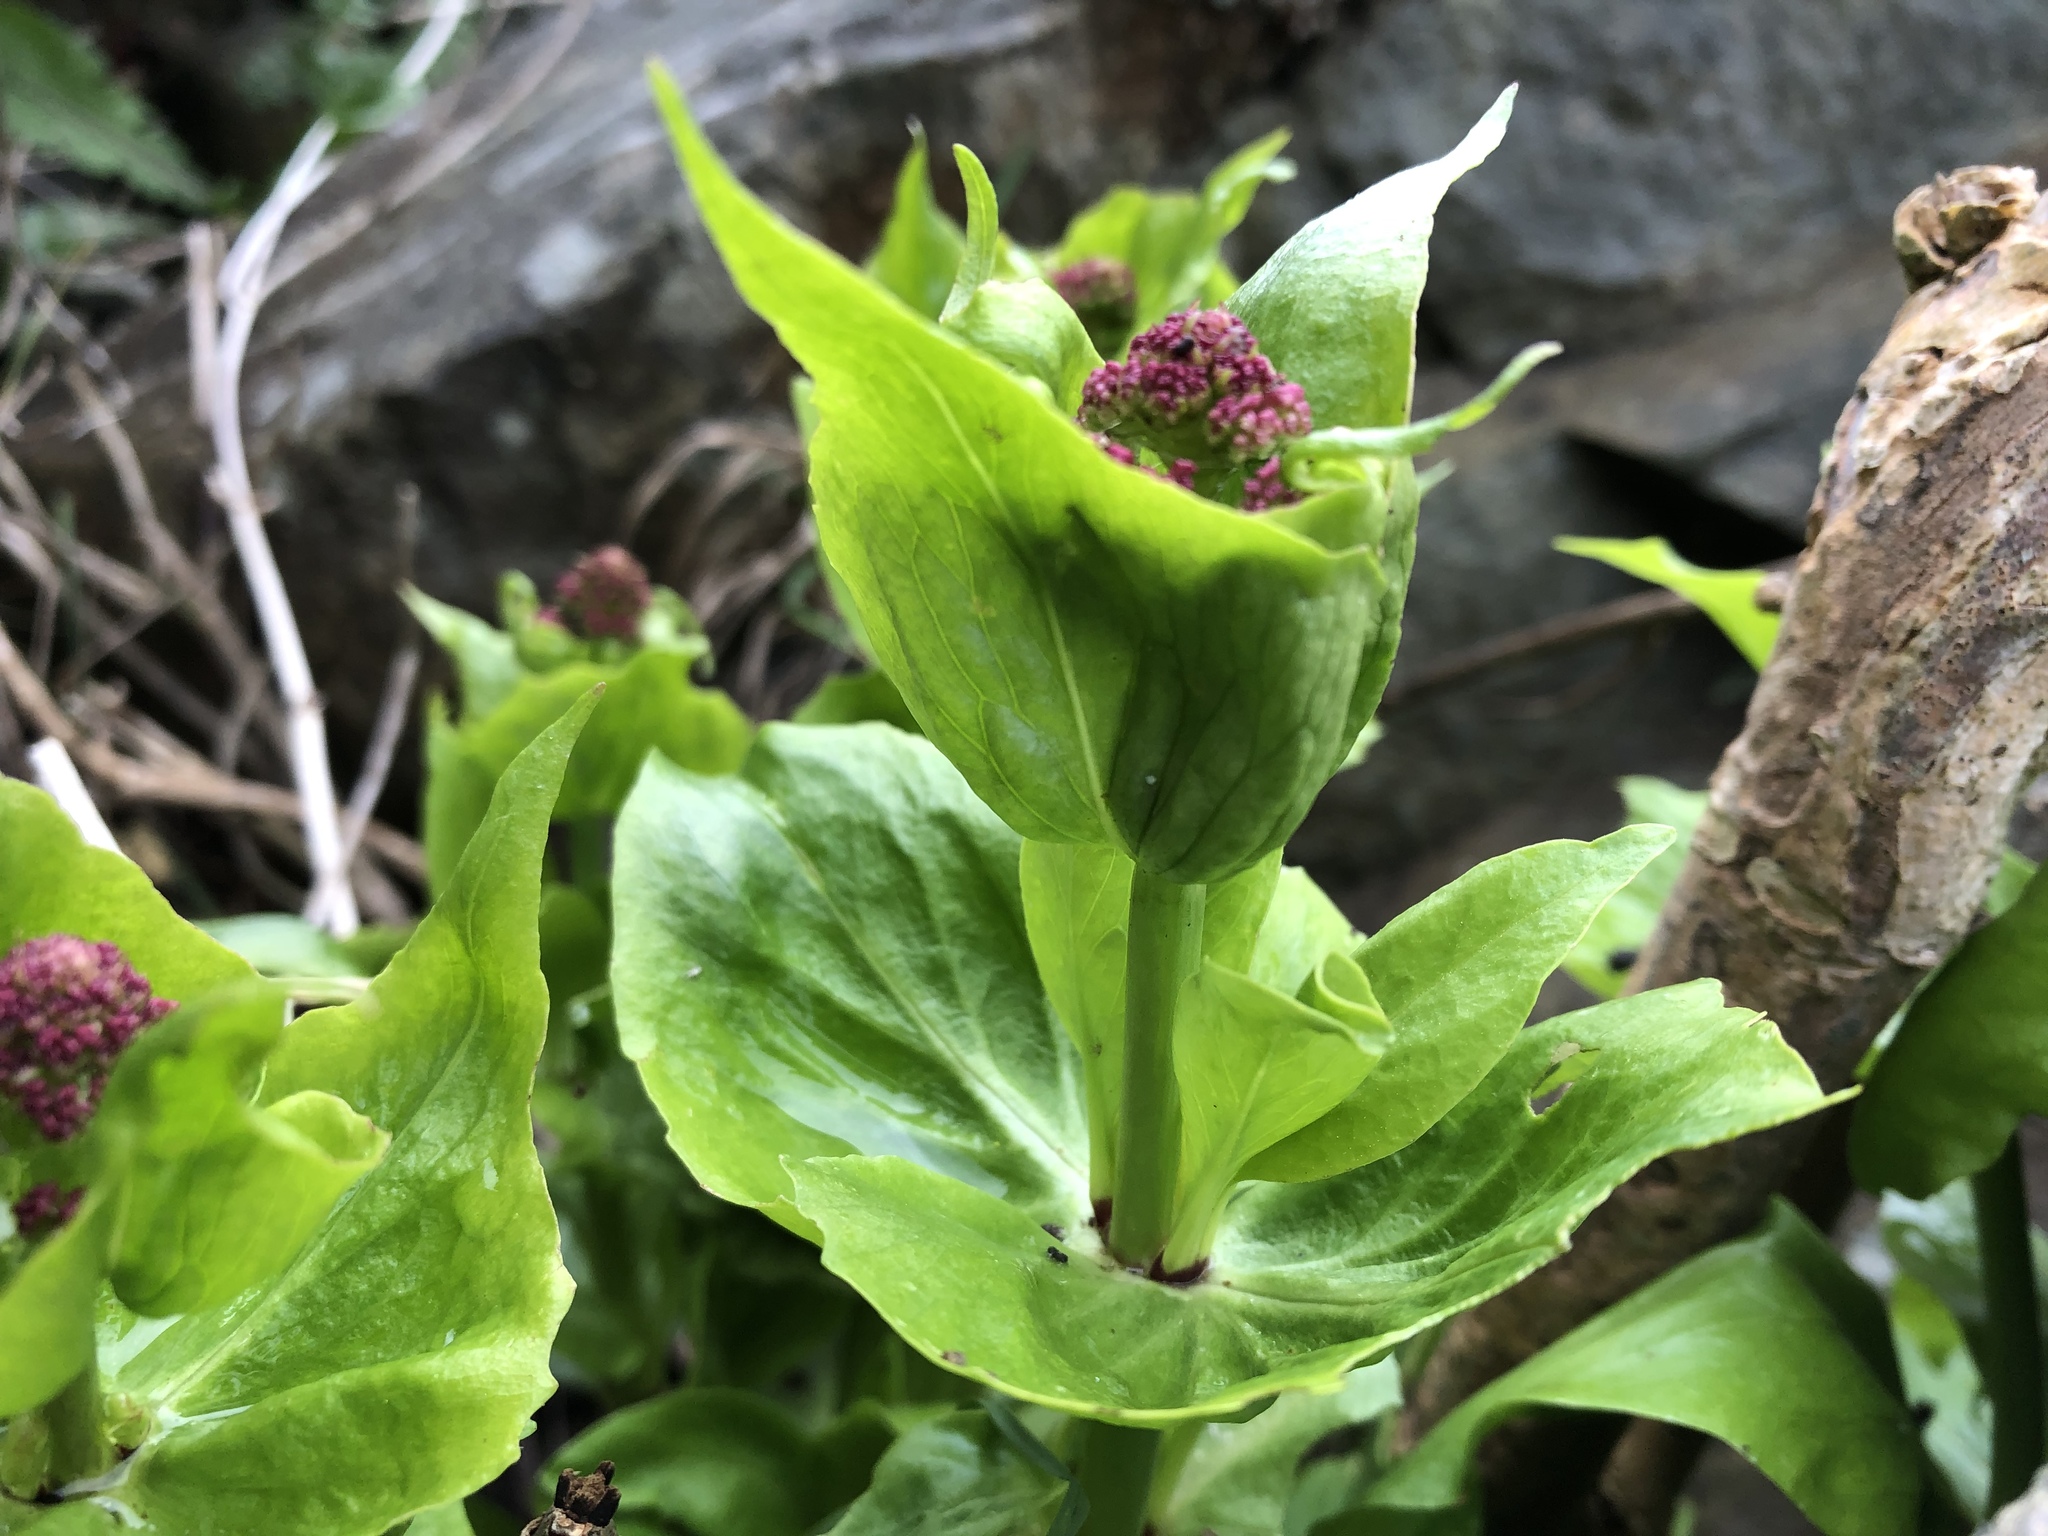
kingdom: Plantae
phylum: Tracheophyta
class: Magnoliopsida
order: Dipsacales
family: Caprifoliaceae
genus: Centranthus
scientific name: Centranthus ruber
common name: Red valerian
